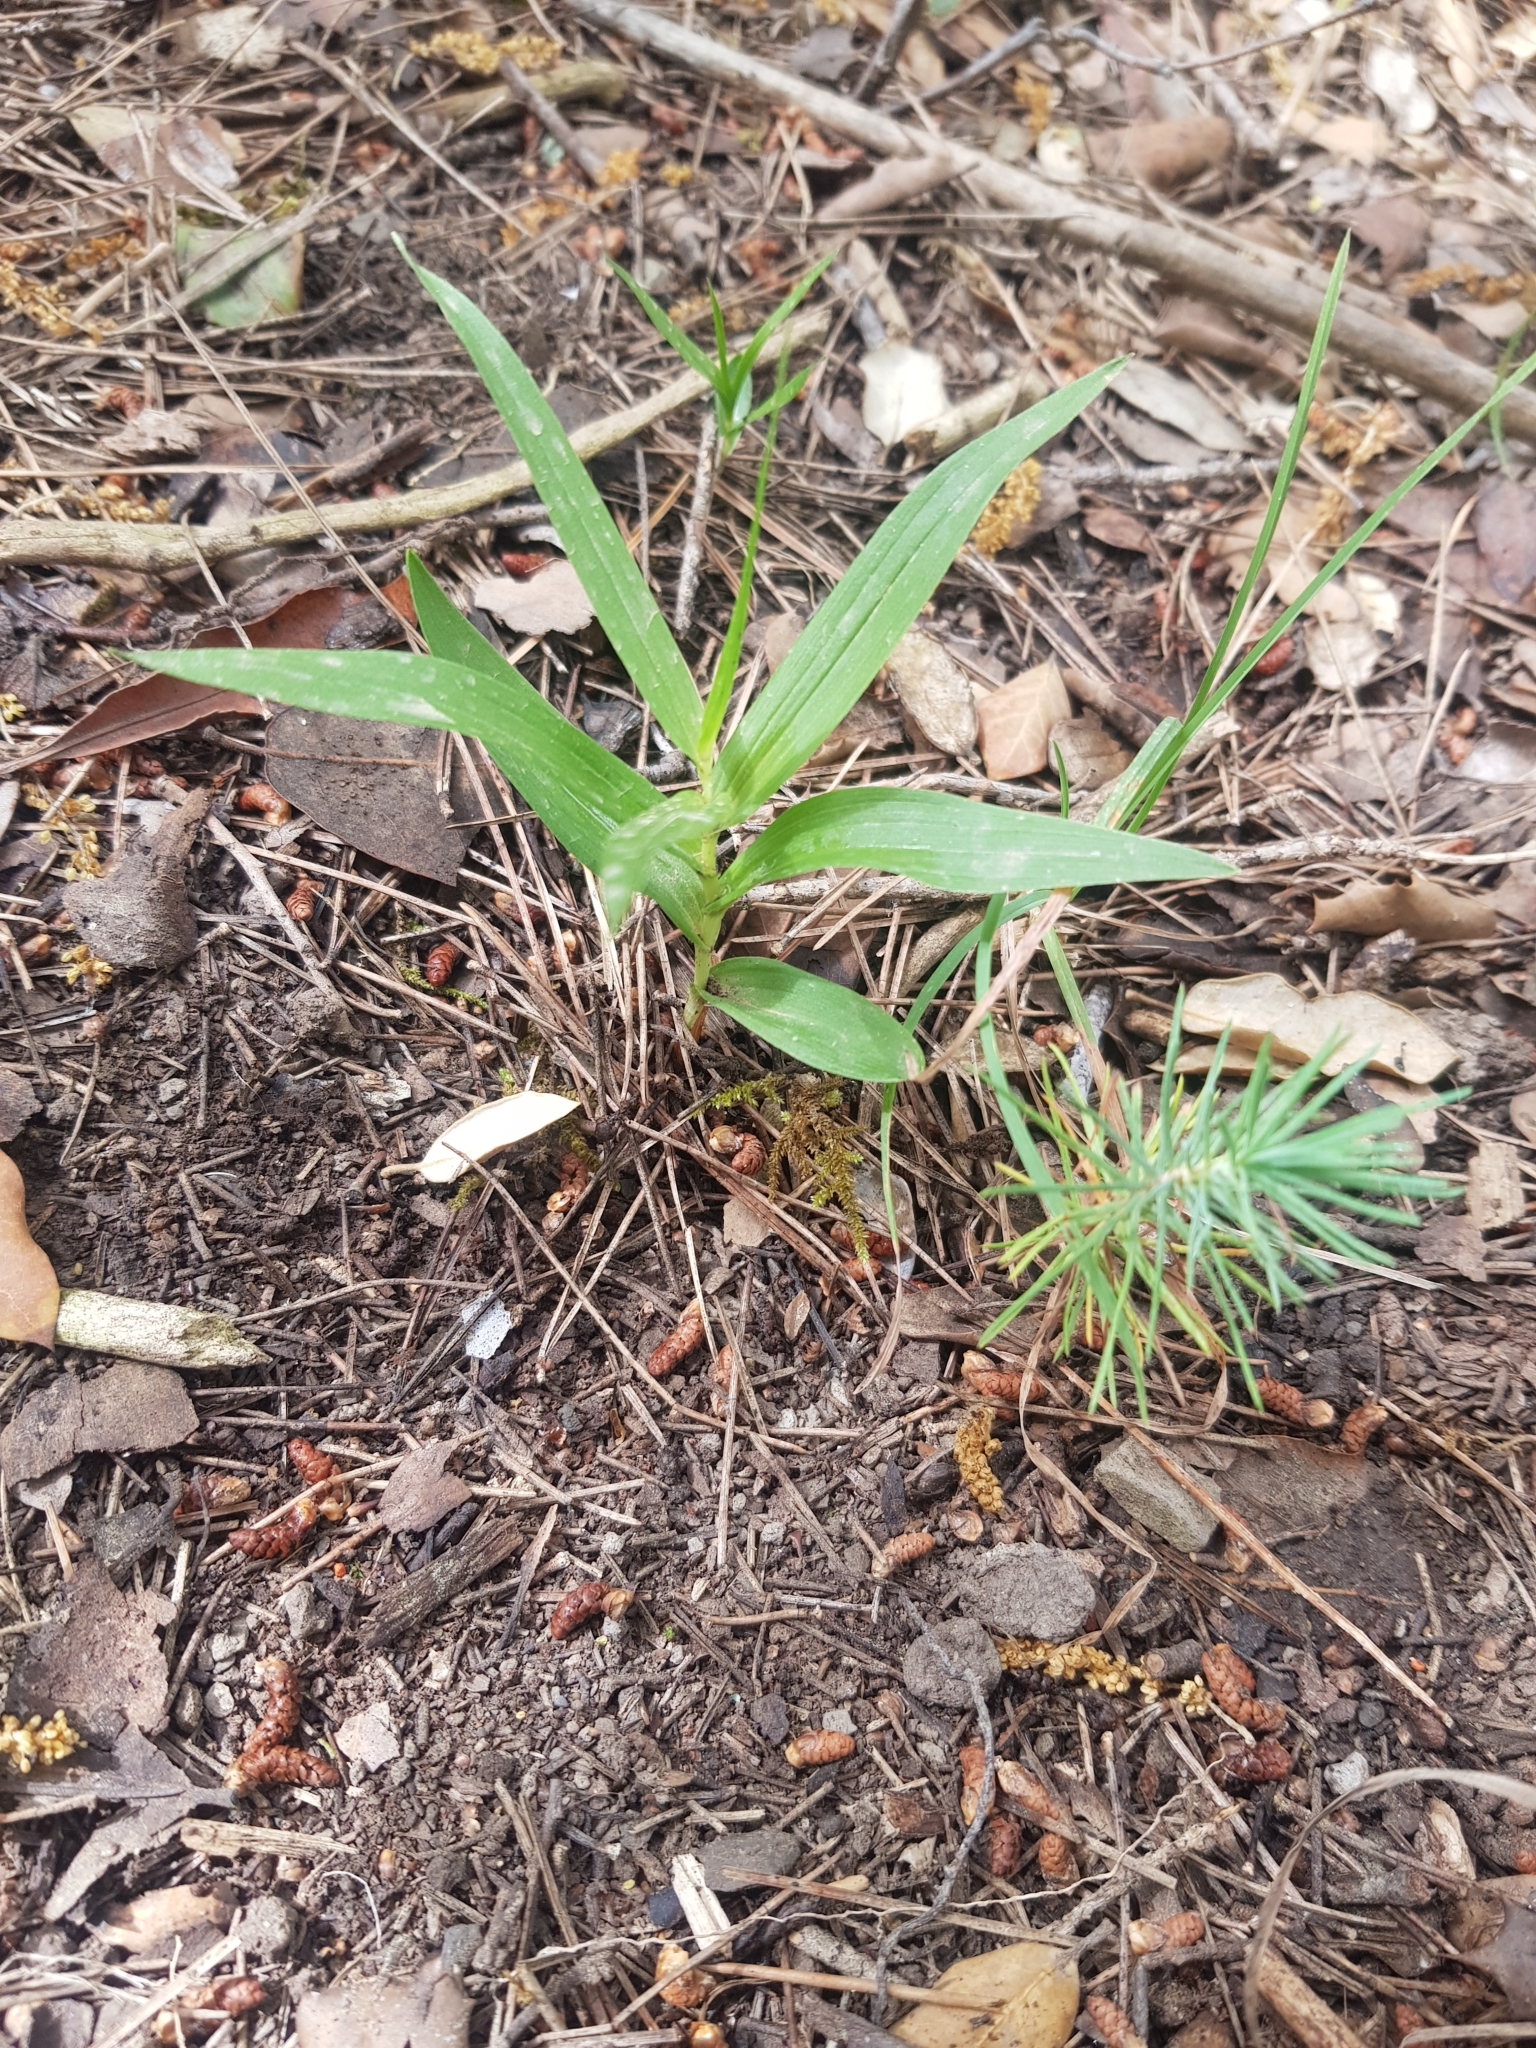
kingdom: Plantae
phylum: Tracheophyta
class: Liliopsida
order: Asparagales
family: Orchidaceae
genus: Cephalanthera
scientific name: Cephalanthera longifolia
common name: Narrow-leaved helleborine
